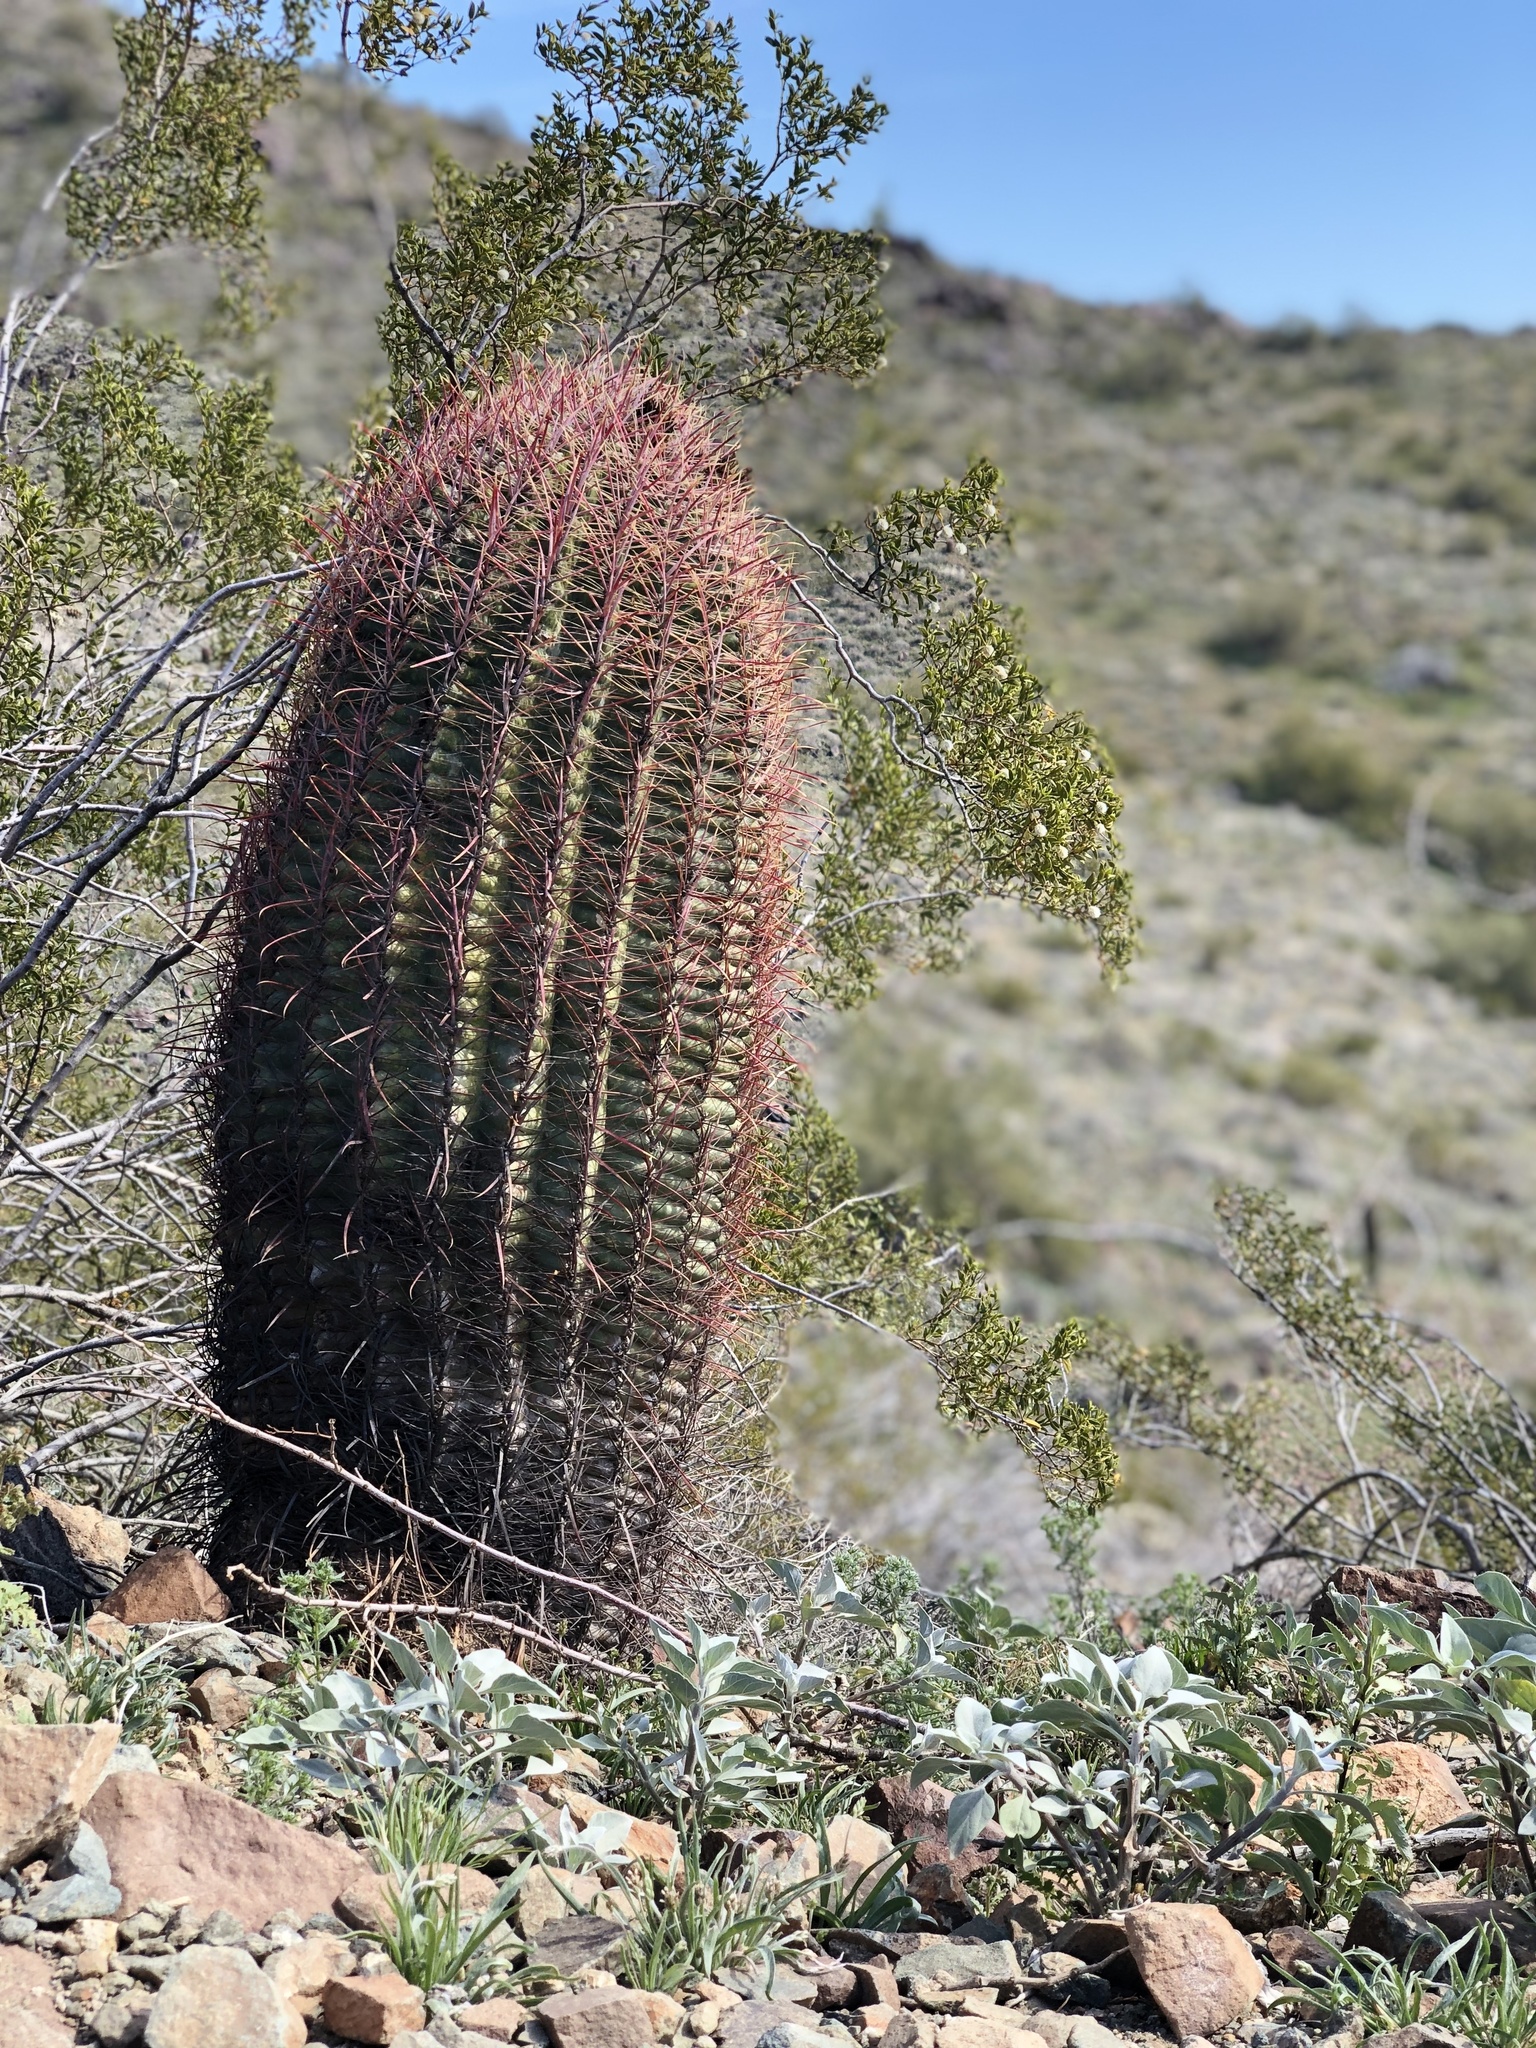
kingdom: Plantae
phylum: Tracheophyta
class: Magnoliopsida
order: Caryophyllales
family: Cactaceae
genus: Ferocactus
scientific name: Ferocactus cylindraceus
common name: California barrel cactus
